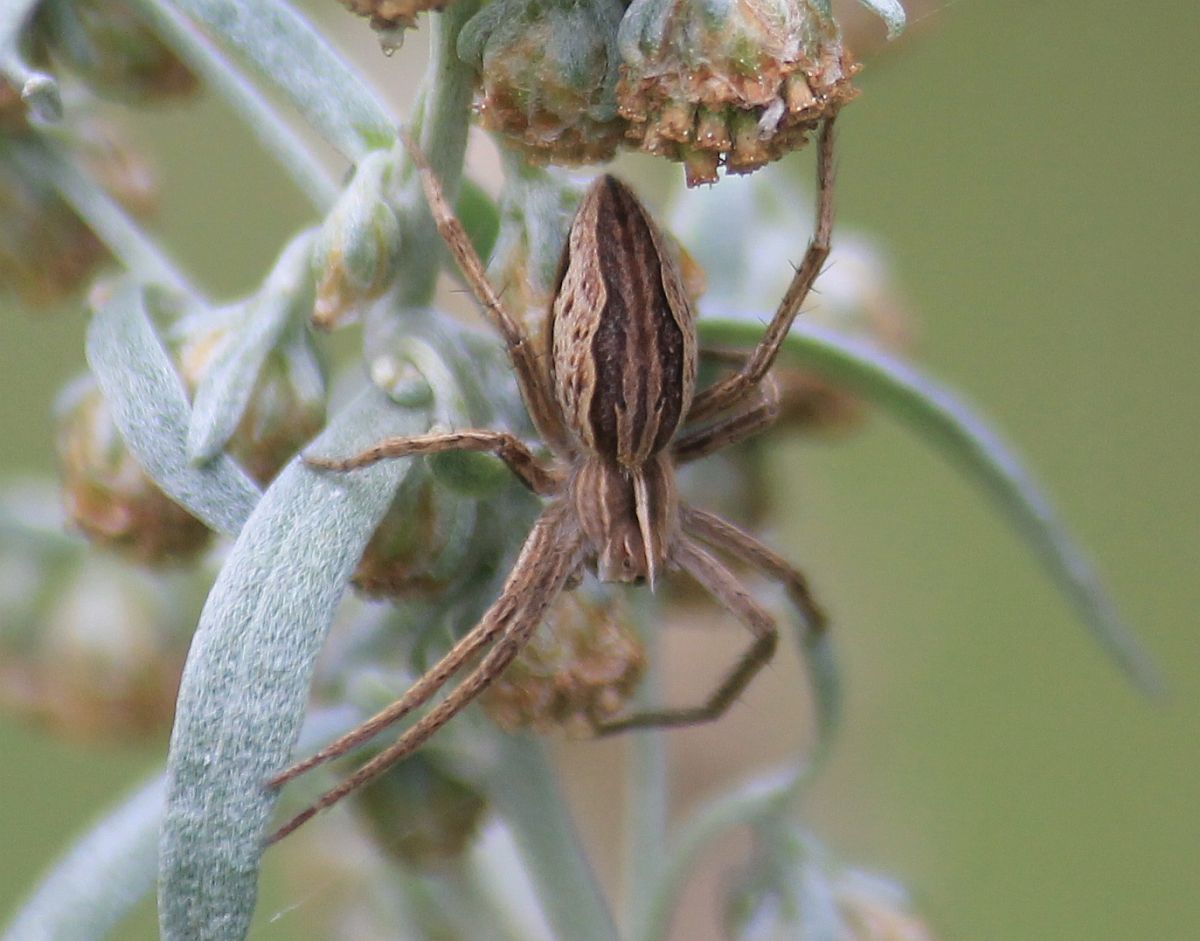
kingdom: Animalia
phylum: Arthropoda
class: Arachnida
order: Araneae
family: Pisauridae
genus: Pisaura
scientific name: Pisaura mirabilis
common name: Tent spider
